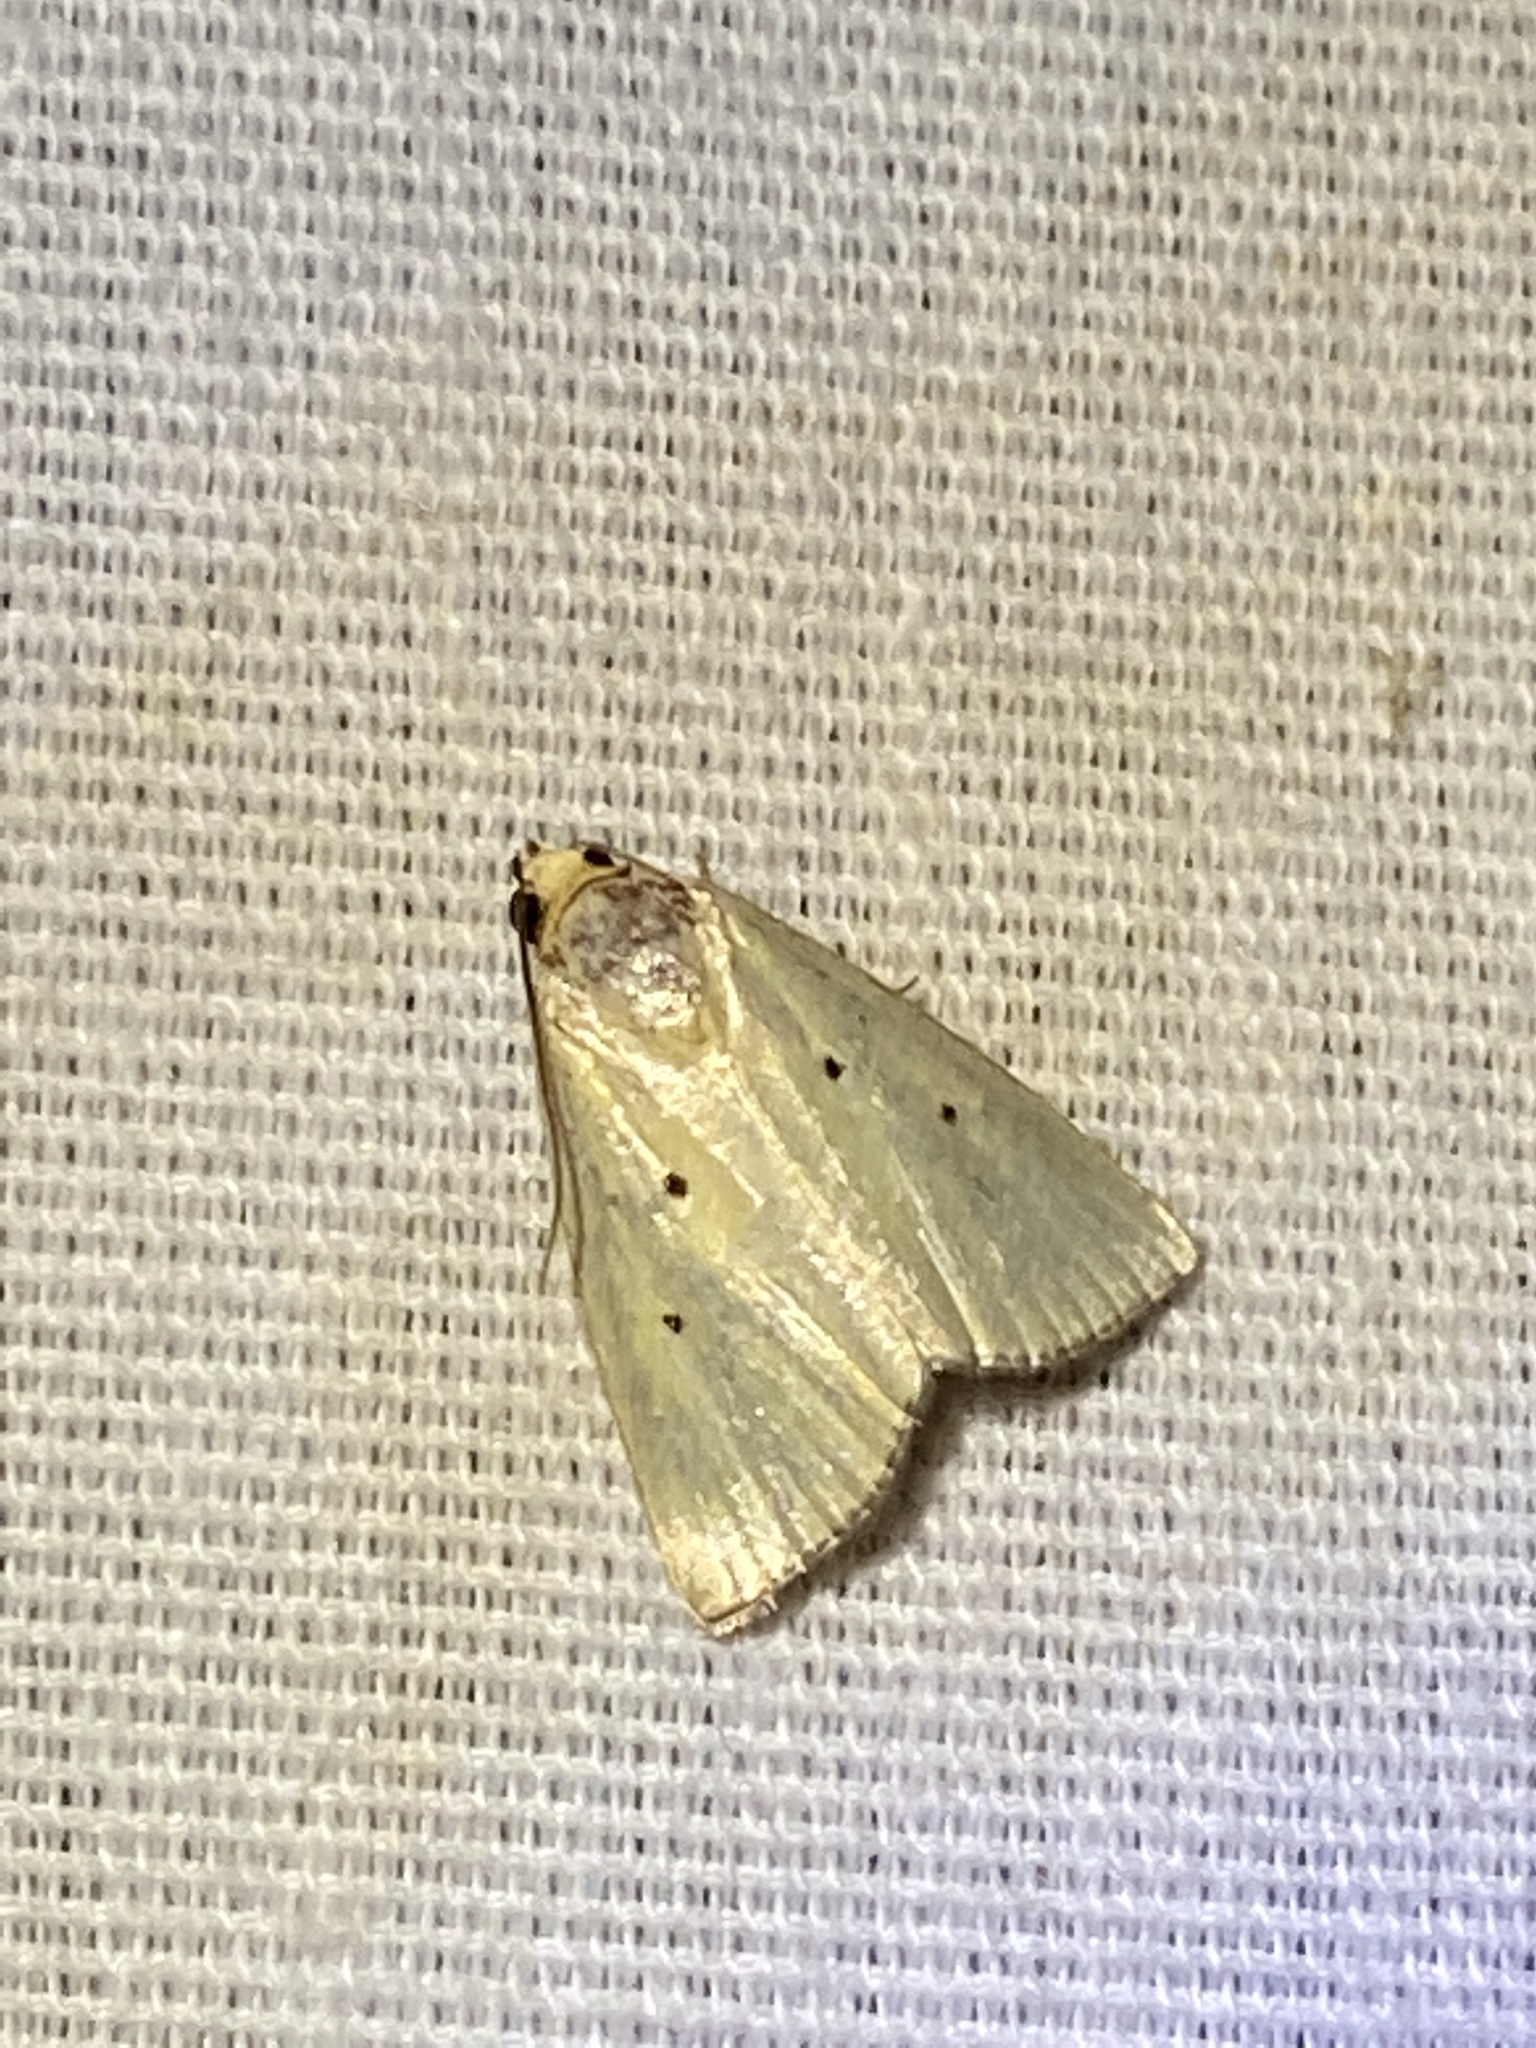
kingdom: Animalia
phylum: Arthropoda
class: Insecta
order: Lepidoptera
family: Noctuidae
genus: Marimatha
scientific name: Marimatha nigrofimbria
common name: Black-bordered lemon moth
